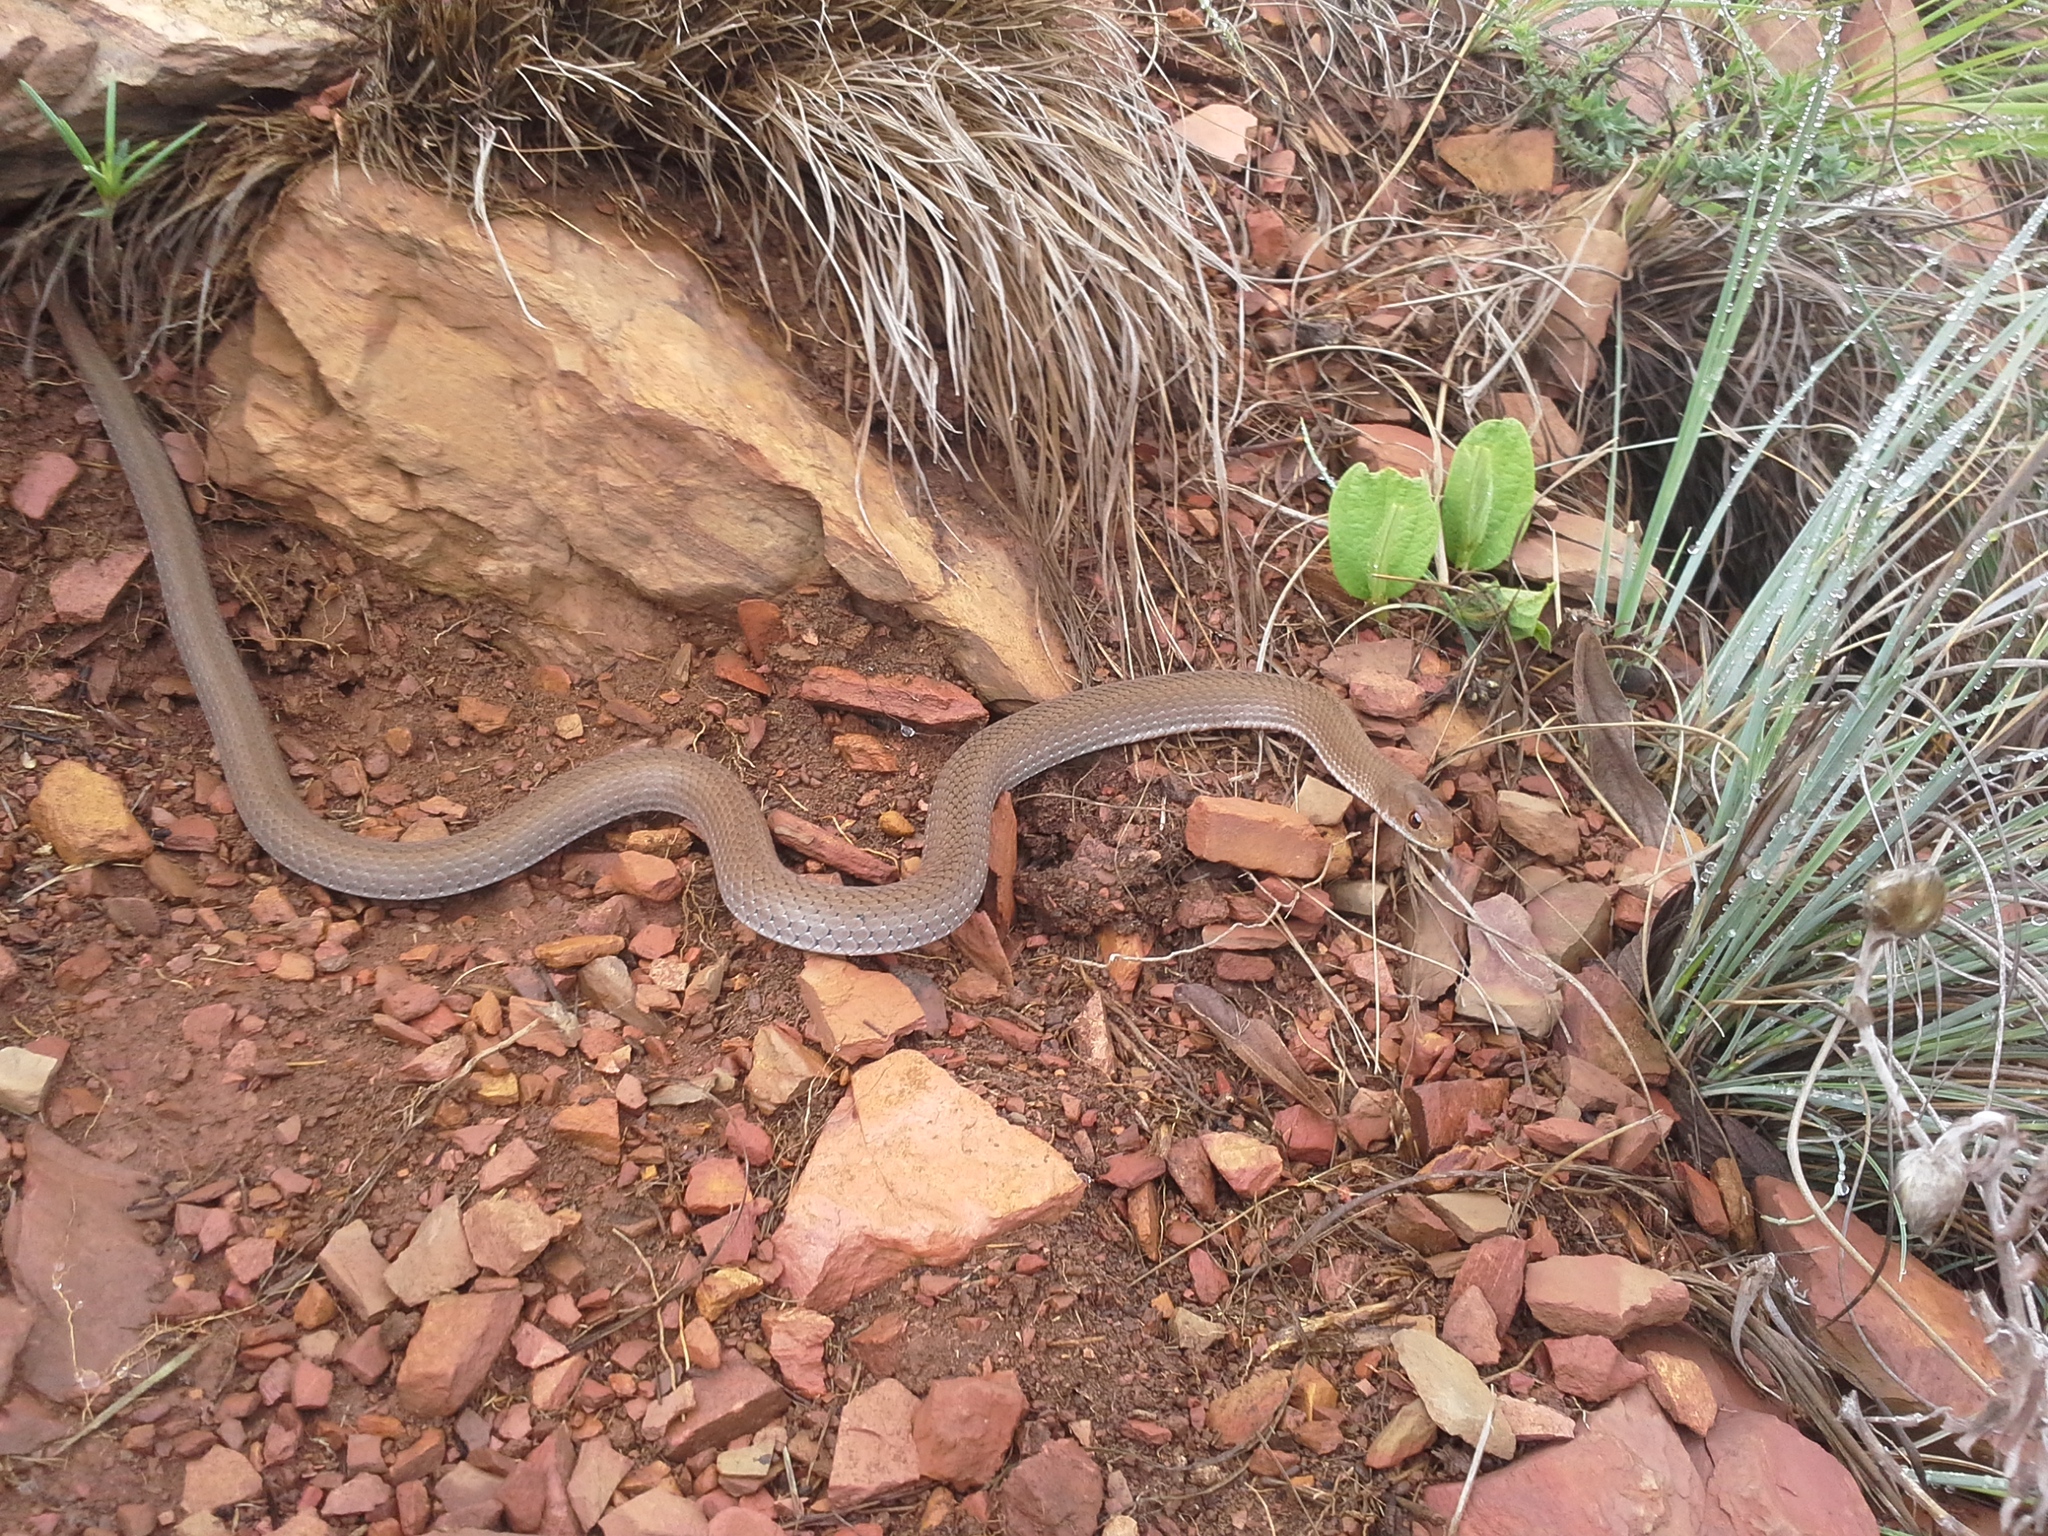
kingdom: Animalia
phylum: Chordata
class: Squamata
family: Psammophiidae
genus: Psammophis
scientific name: Psammophis crucifer
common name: Cross-marked grass snake
